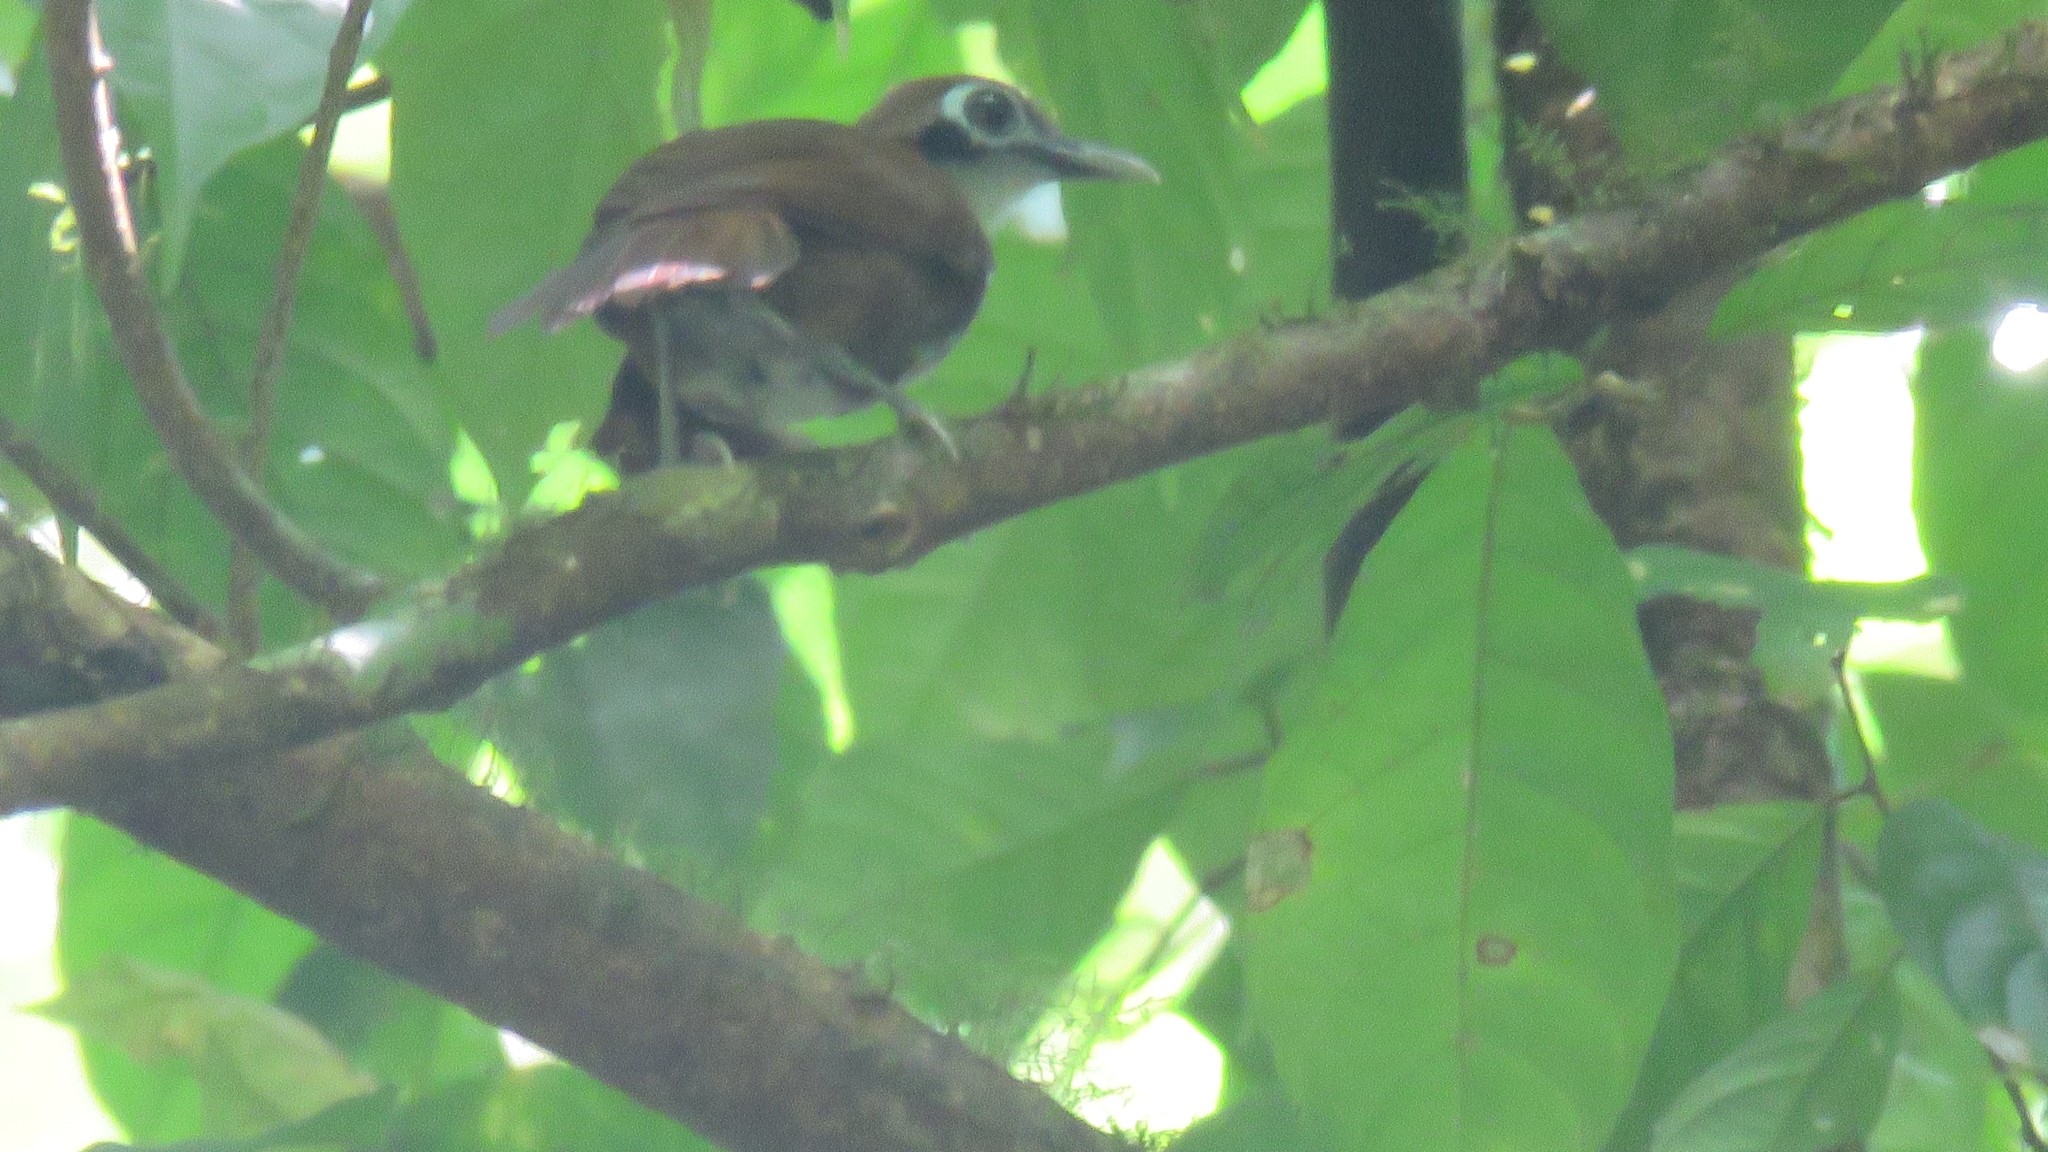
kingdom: Animalia
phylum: Chordata
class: Aves
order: Passeriformes
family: Thamnophilidae
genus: Gymnopithys
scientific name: Gymnopithys leucaspis
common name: White-cheeked antbird
